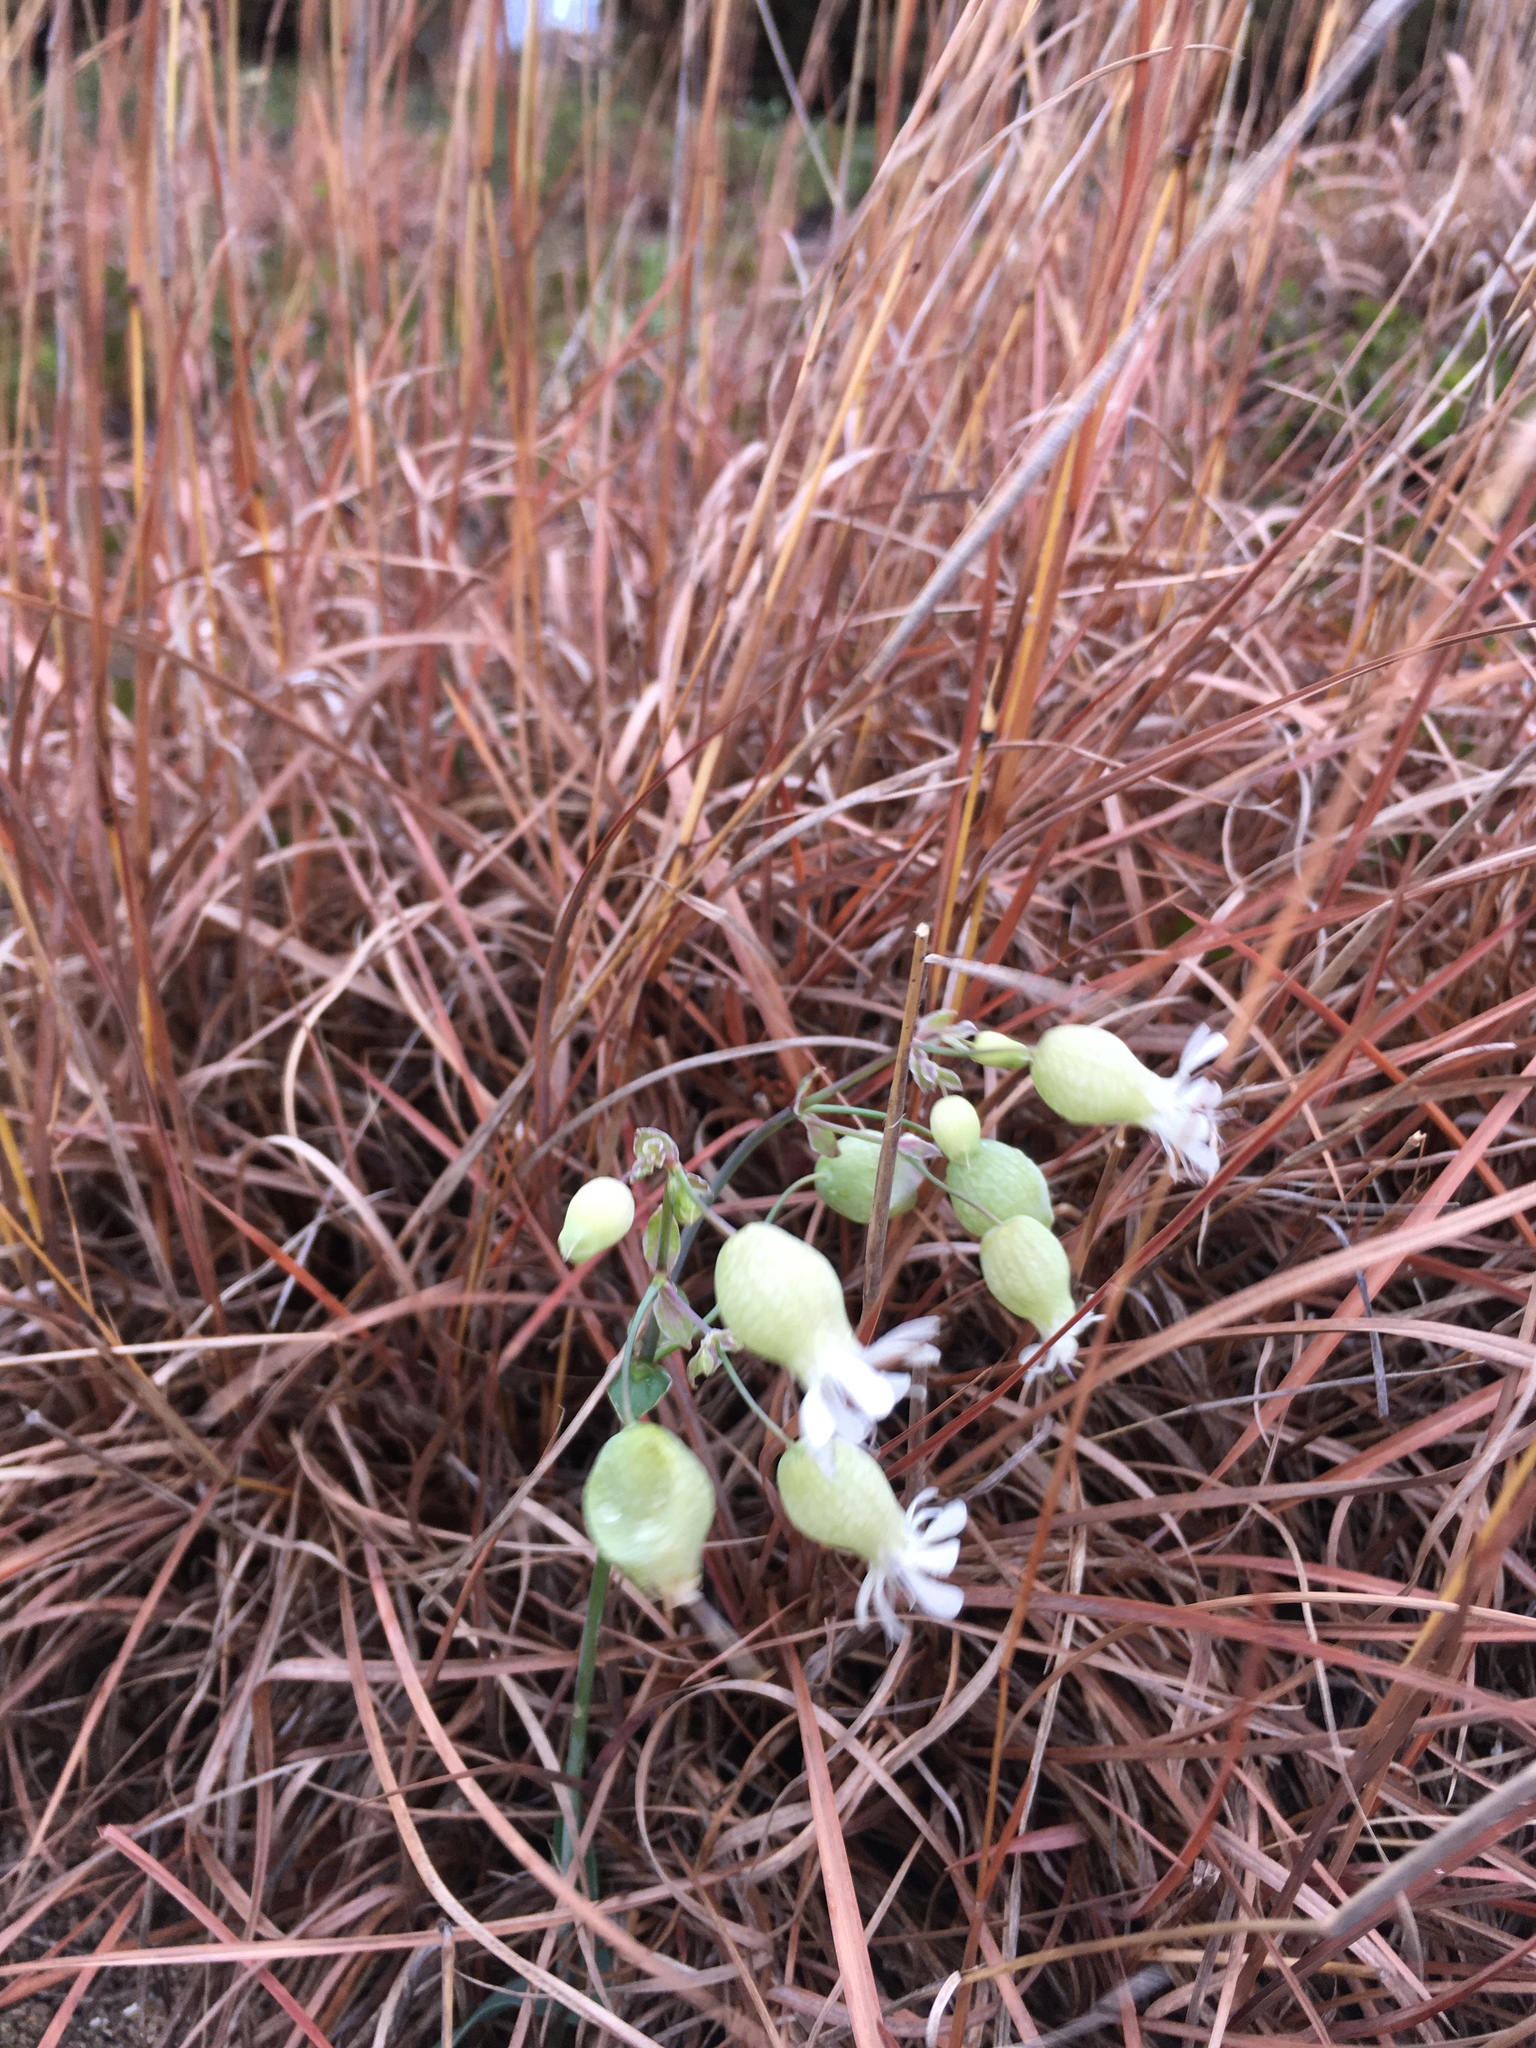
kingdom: Plantae
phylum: Tracheophyta
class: Magnoliopsida
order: Caryophyllales
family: Caryophyllaceae
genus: Silene
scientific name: Silene vulgaris
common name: Bladder campion
